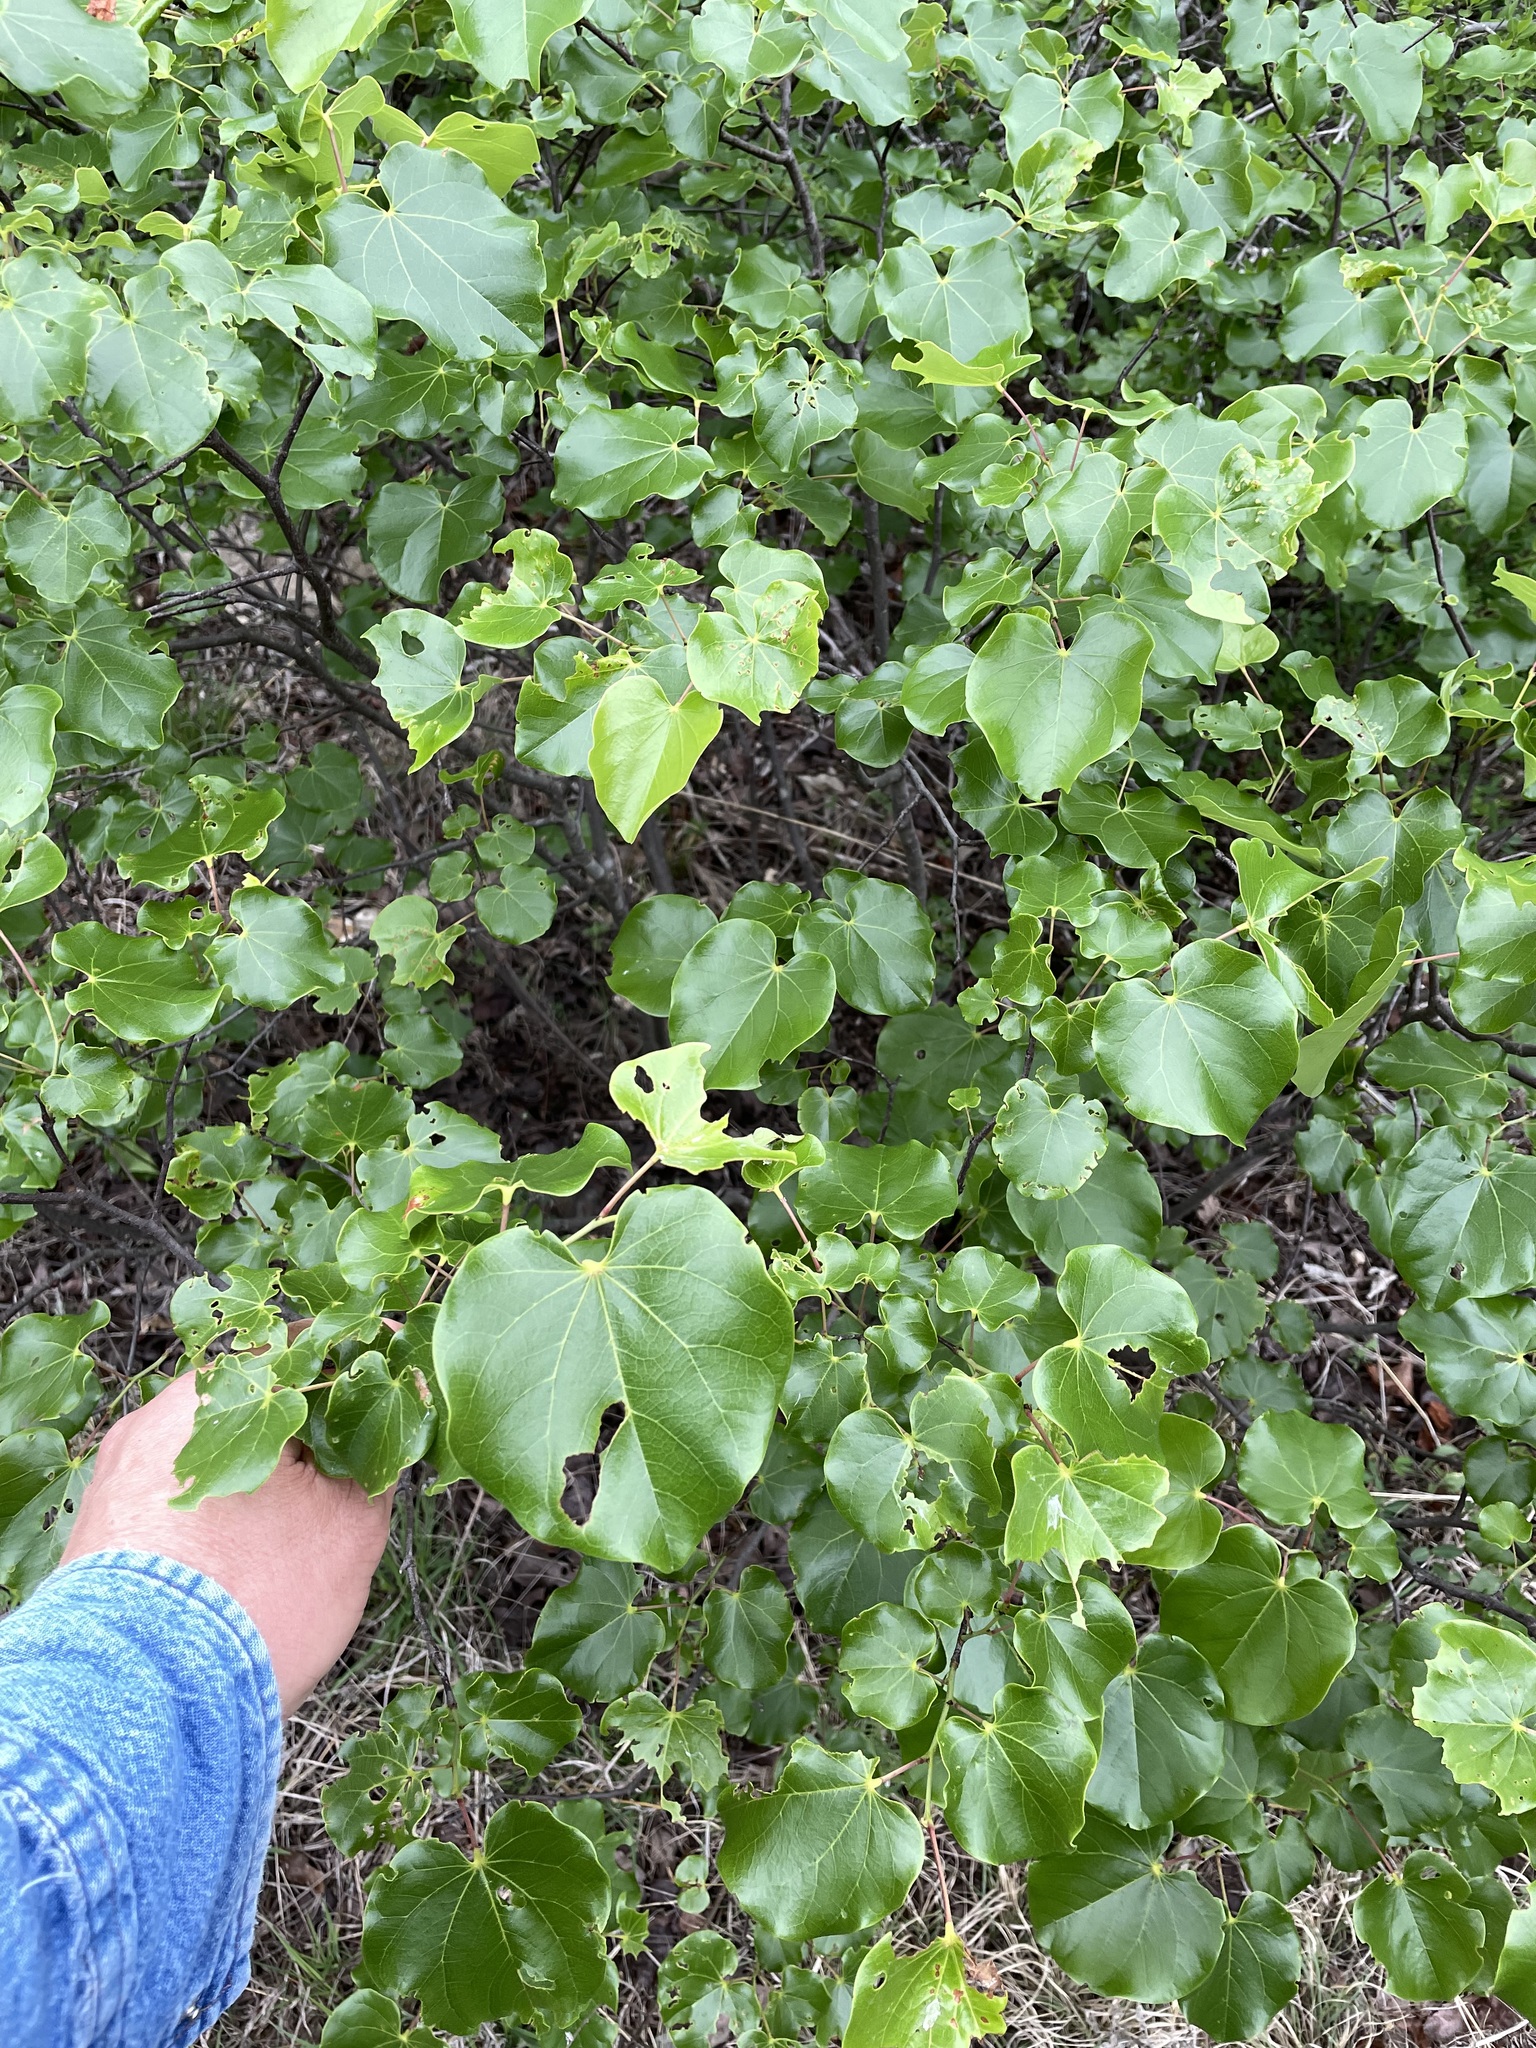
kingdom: Plantae
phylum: Tracheophyta
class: Magnoliopsida
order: Fabales
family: Fabaceae
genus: Cercis
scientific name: Cercis canadensis
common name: Eastern redbud
